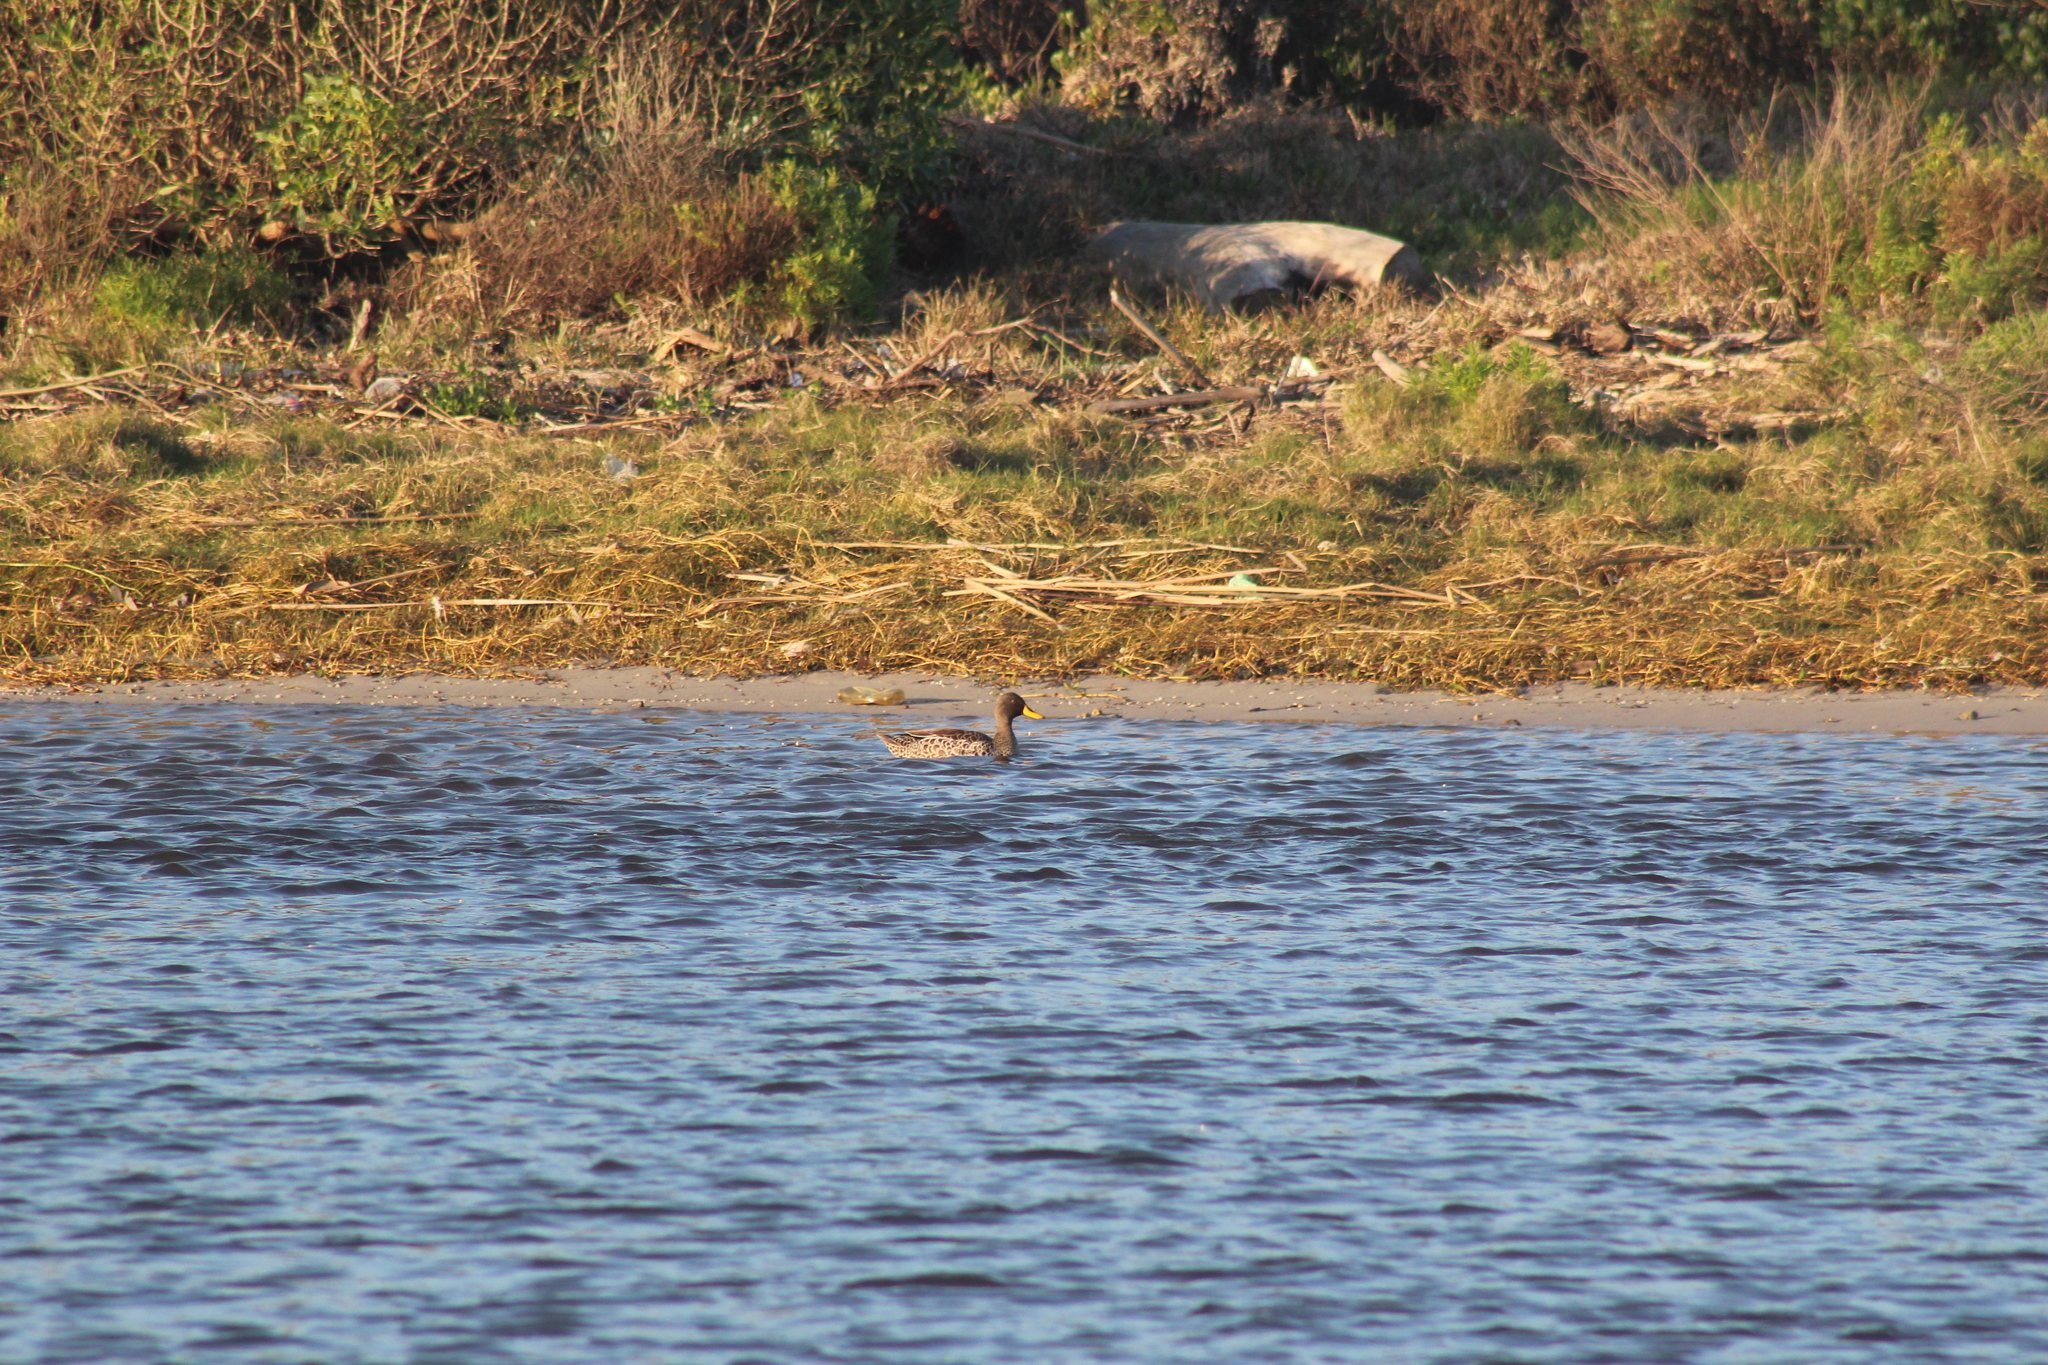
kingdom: Animalia
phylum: Chordata
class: Aves
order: Anseriformes
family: Anatidae
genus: Anas
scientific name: Anas undulata
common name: Yellow-billed duck
